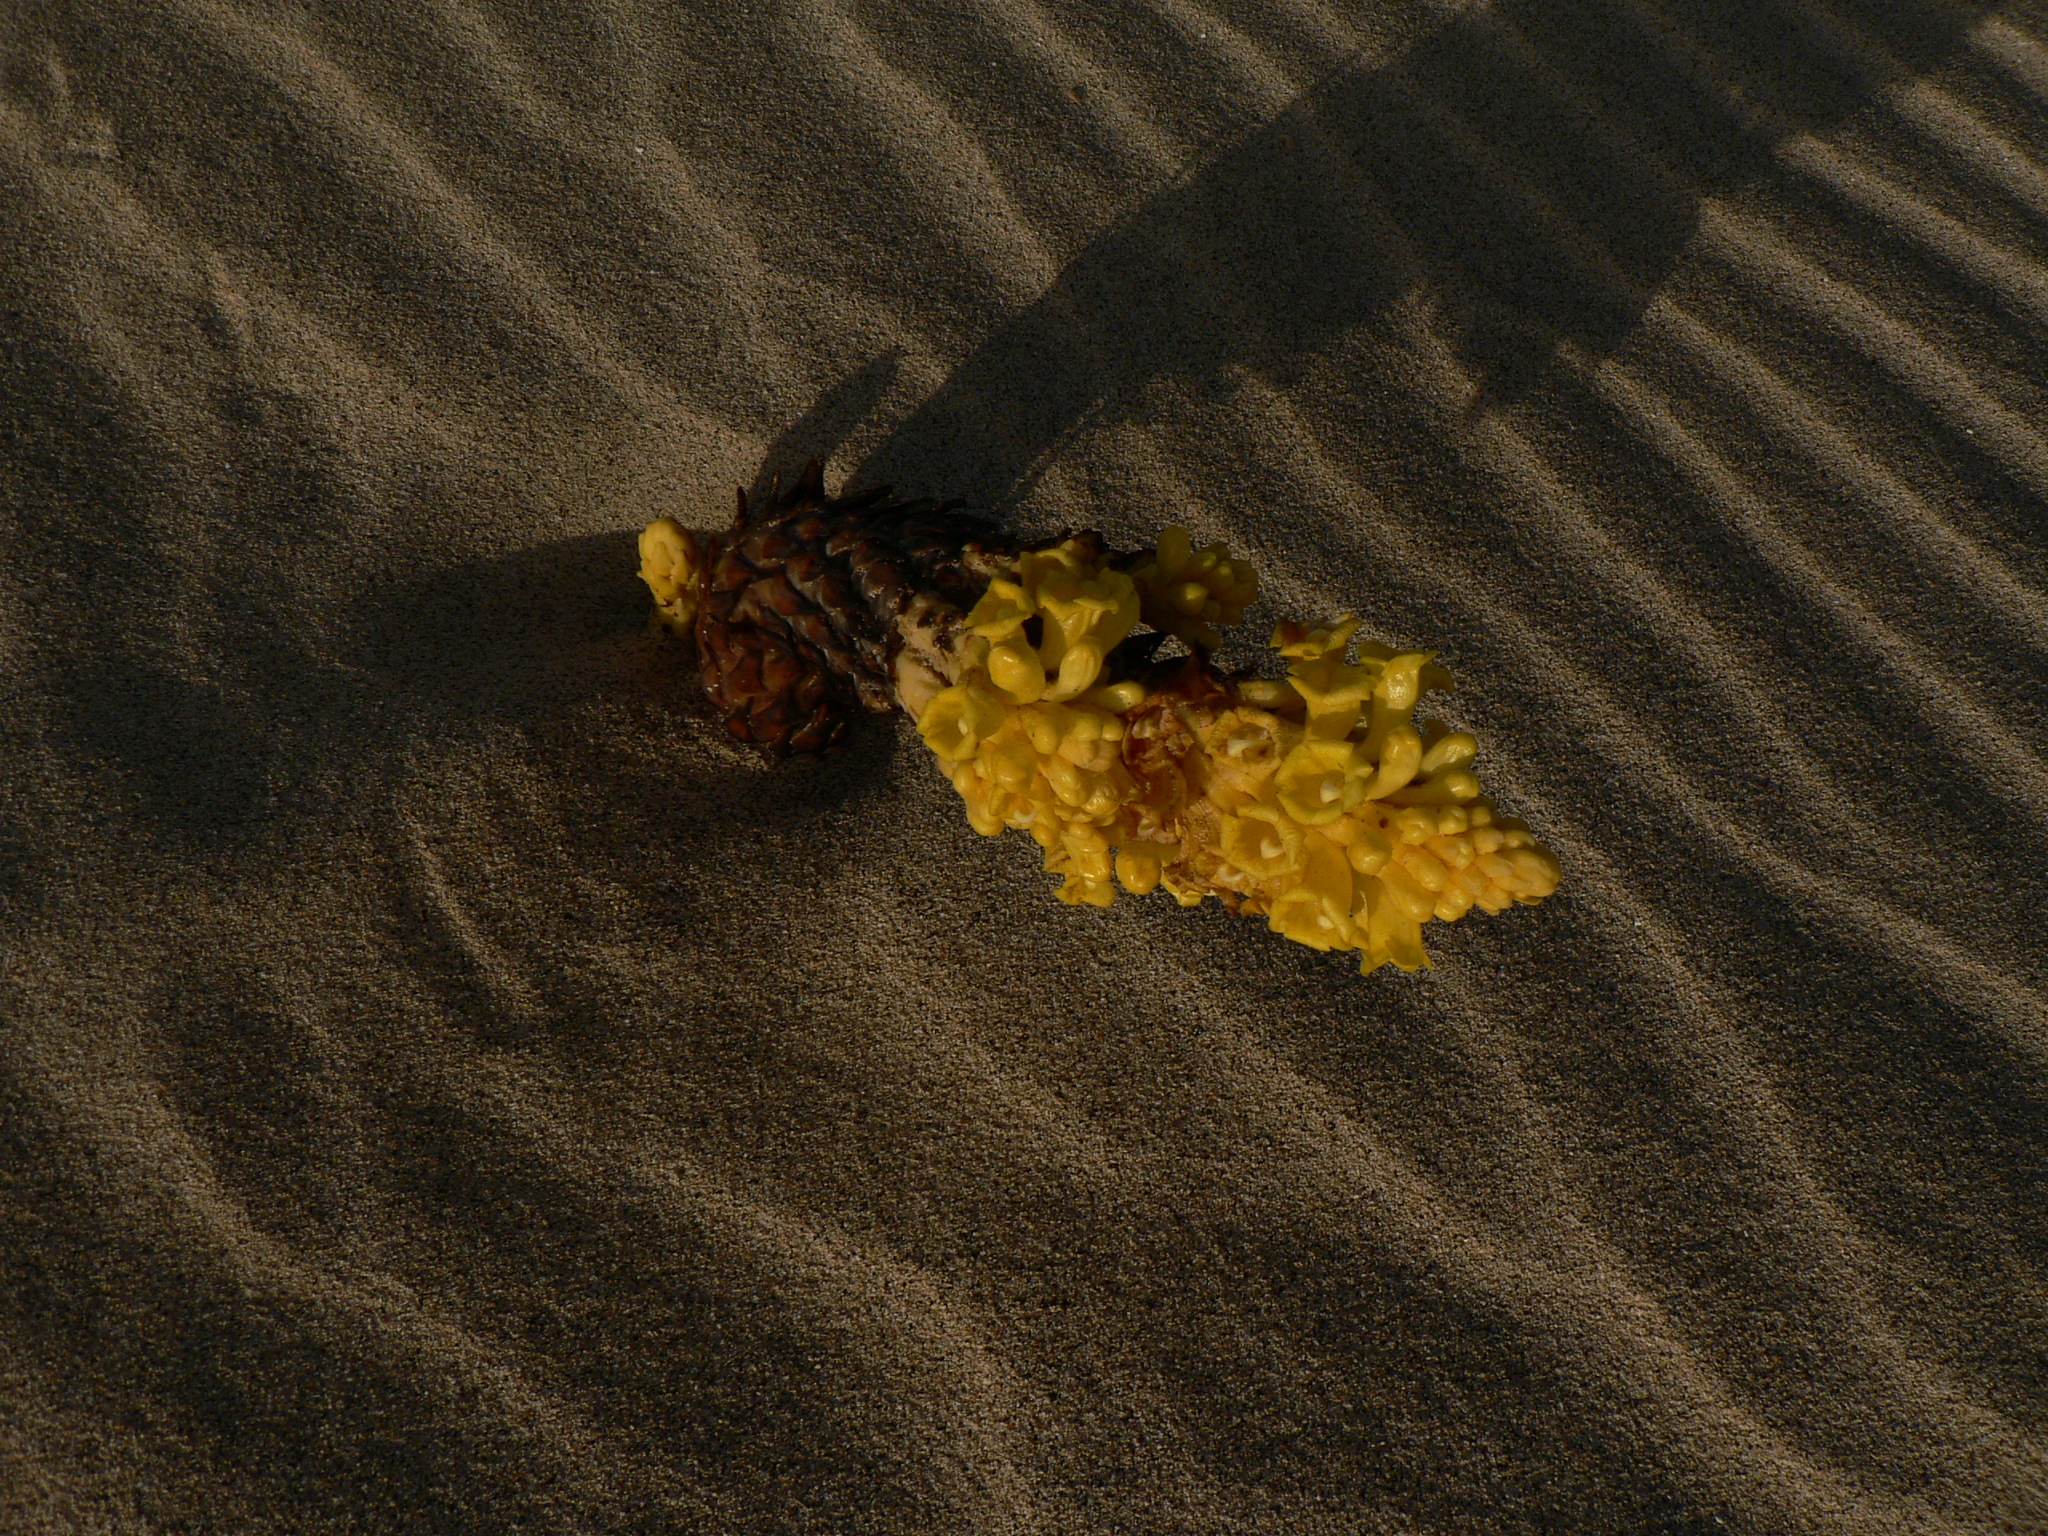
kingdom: Plantae
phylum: Tracheophyta
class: Magnoliopsida
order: Lamiales
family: Orobanchaceae
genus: Cistanche
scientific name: Cistanche phelypaea
